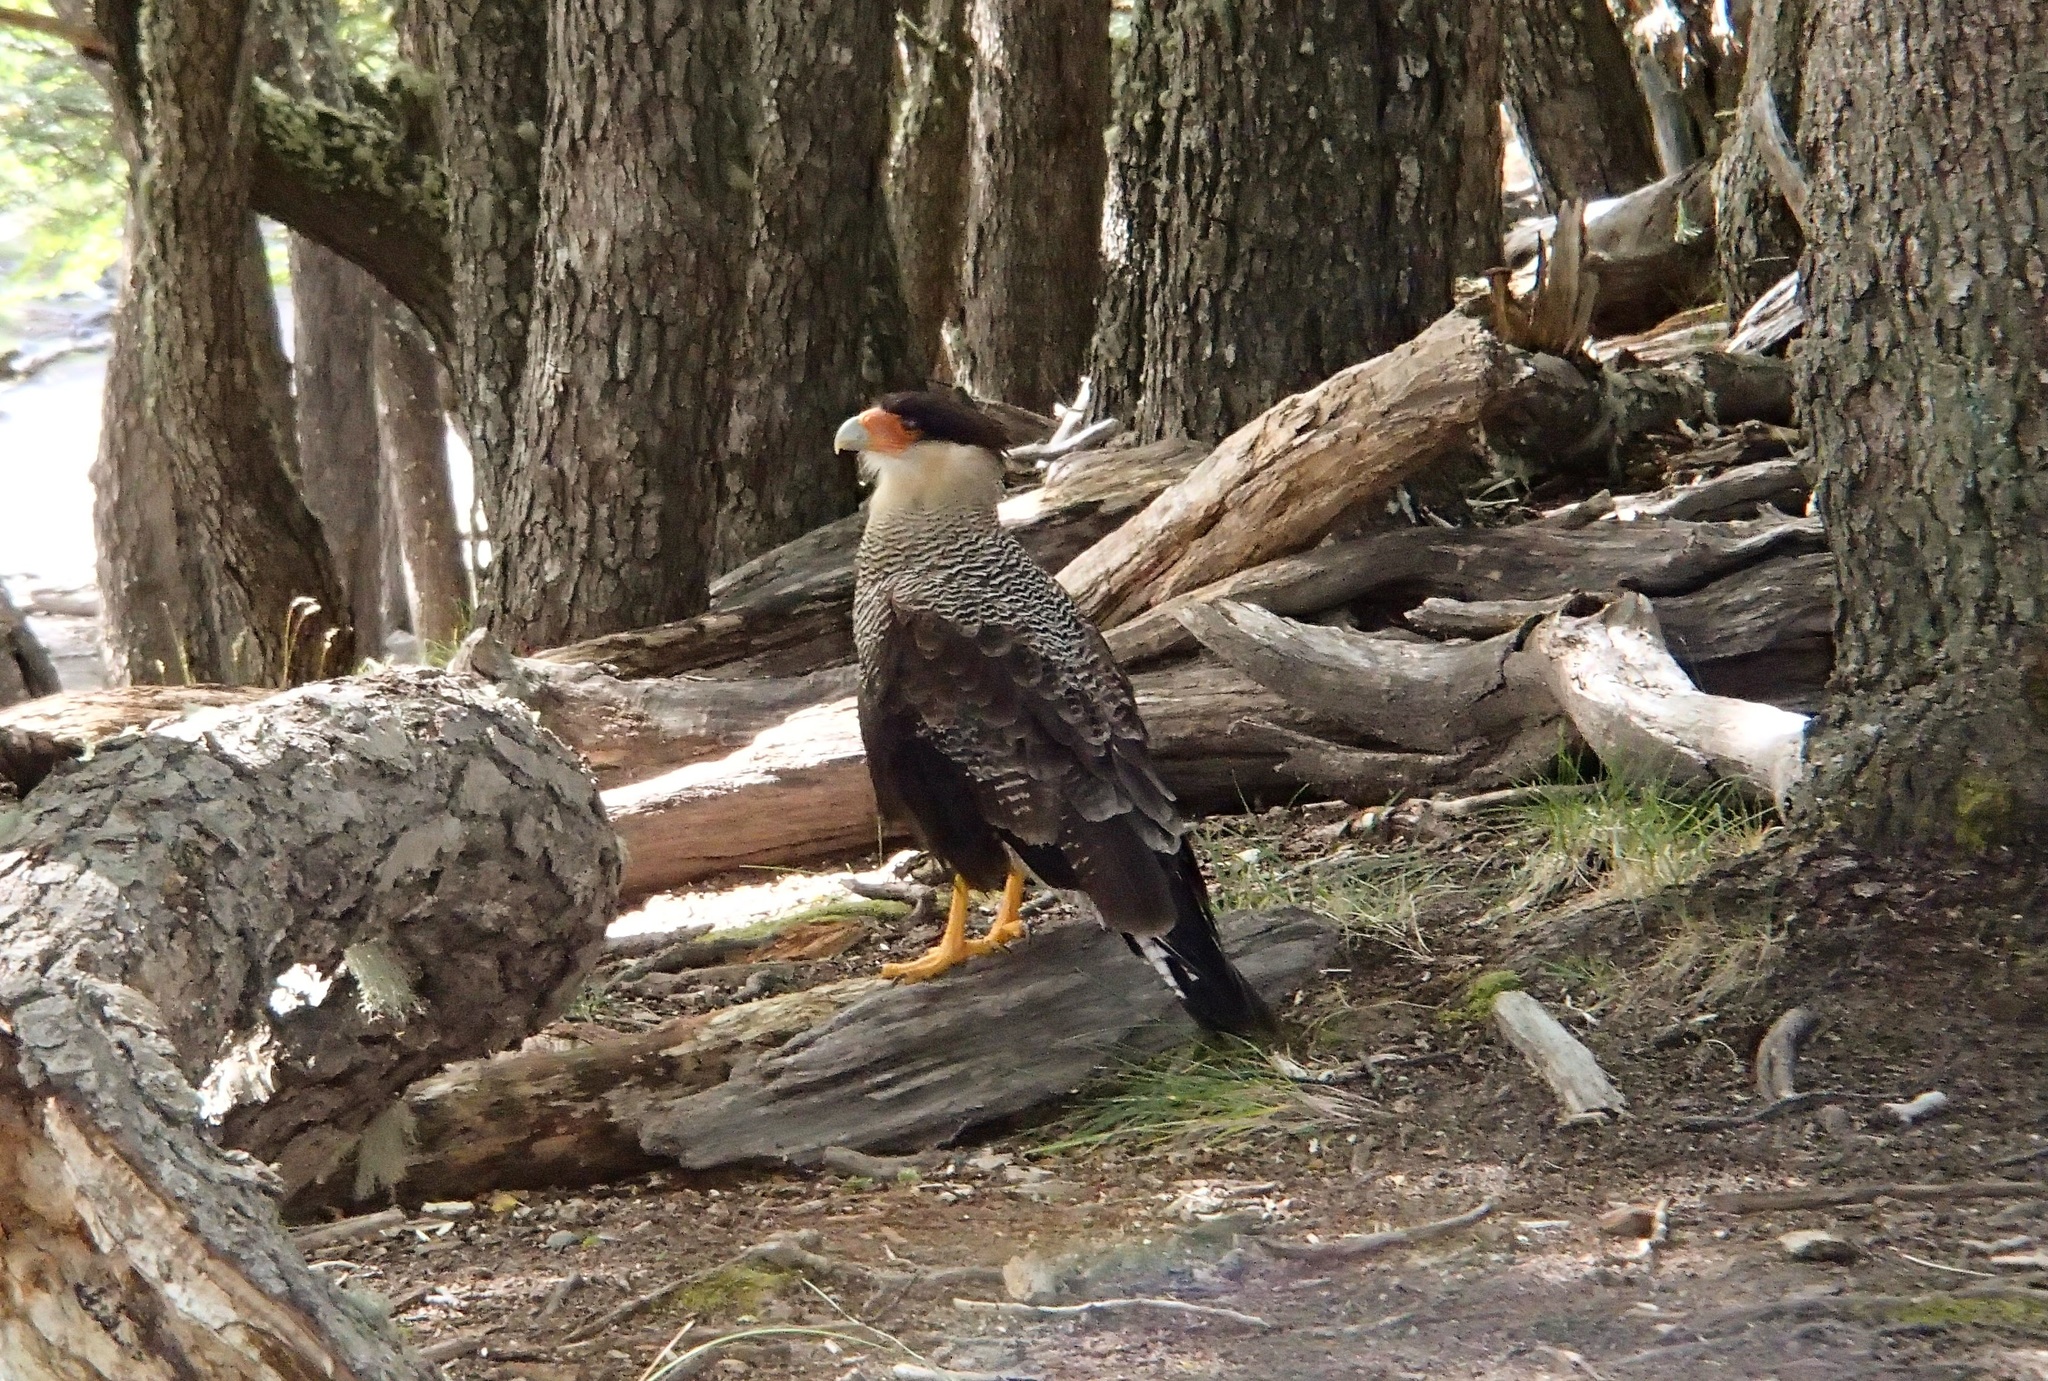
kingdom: Animalia
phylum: Chordata
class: Aves
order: Falconiformes
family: Falconidae
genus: Caracara
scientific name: Caracara plancus
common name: Southern caracara
